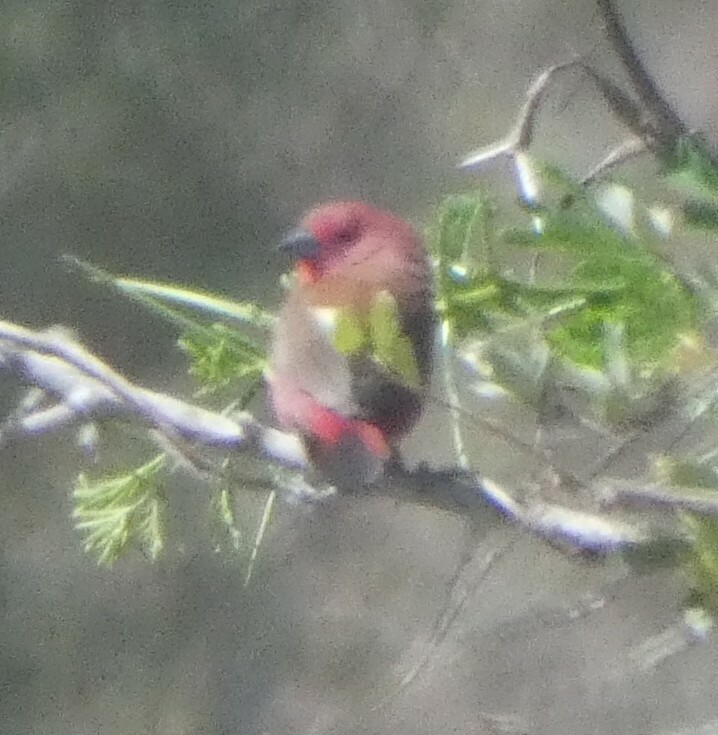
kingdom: Animalia
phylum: Chordata
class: Aves
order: Passeriformes
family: Estrildidae
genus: Lagonosticta
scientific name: Lagonosticta rhodopareia
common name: Jameson's firefinch
